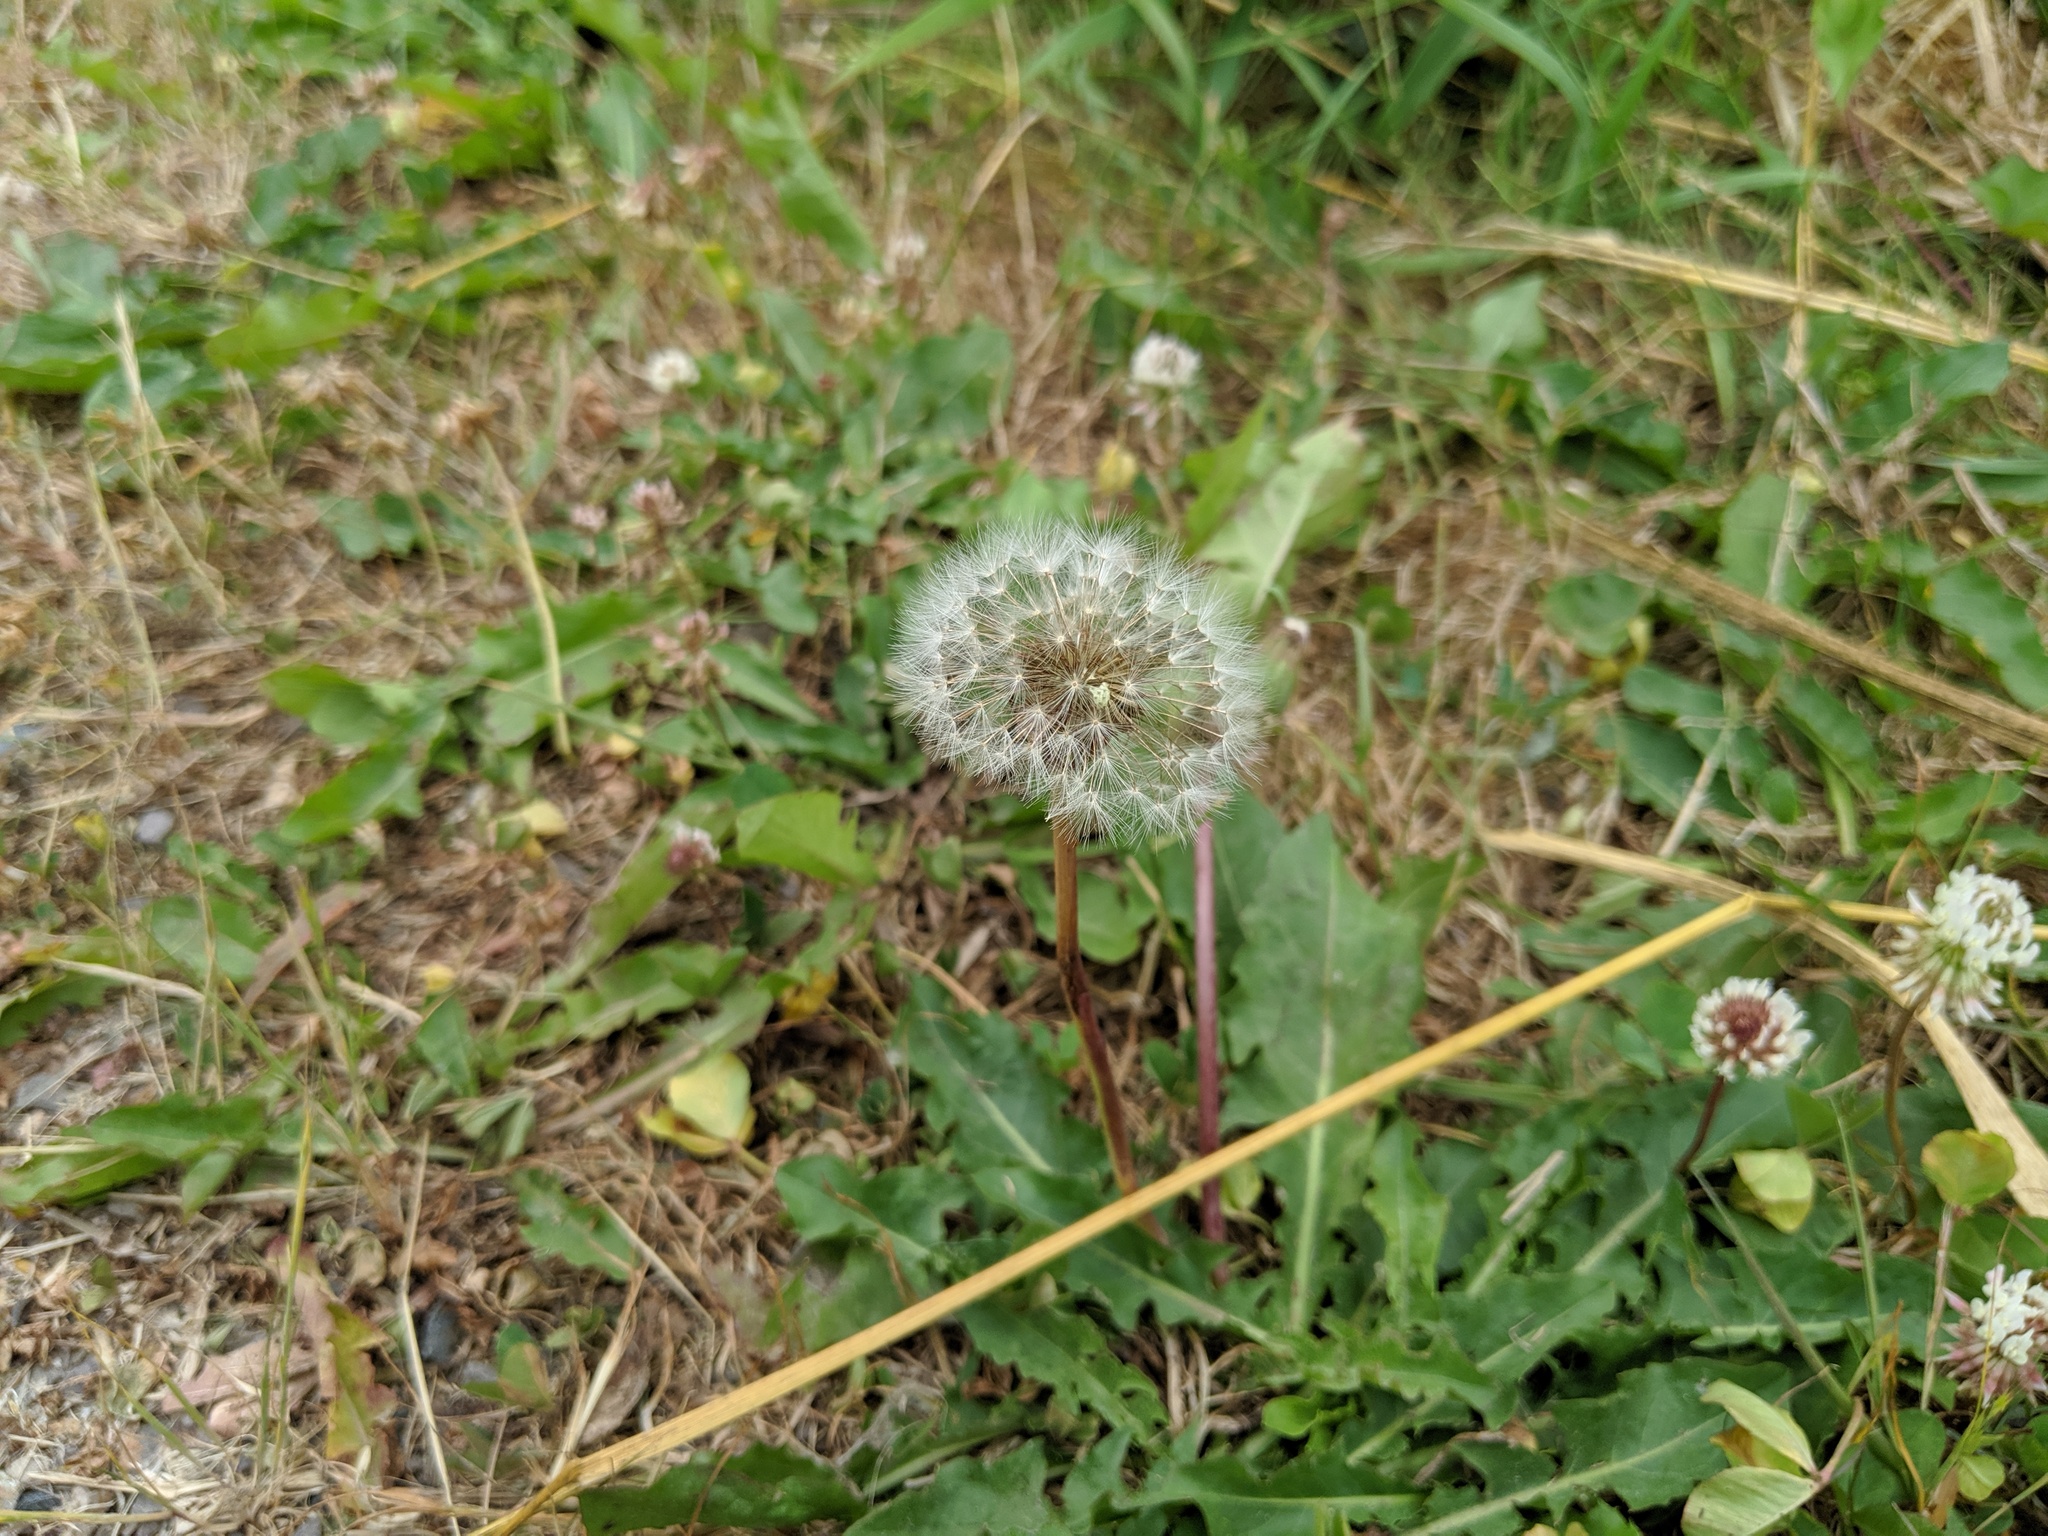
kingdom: Plantae
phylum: Tracheophyta
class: Magnoliopsida
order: Asterales
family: Asteraceae
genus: Taraxacum
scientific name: Taraxacum officinale
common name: Common dandelion
